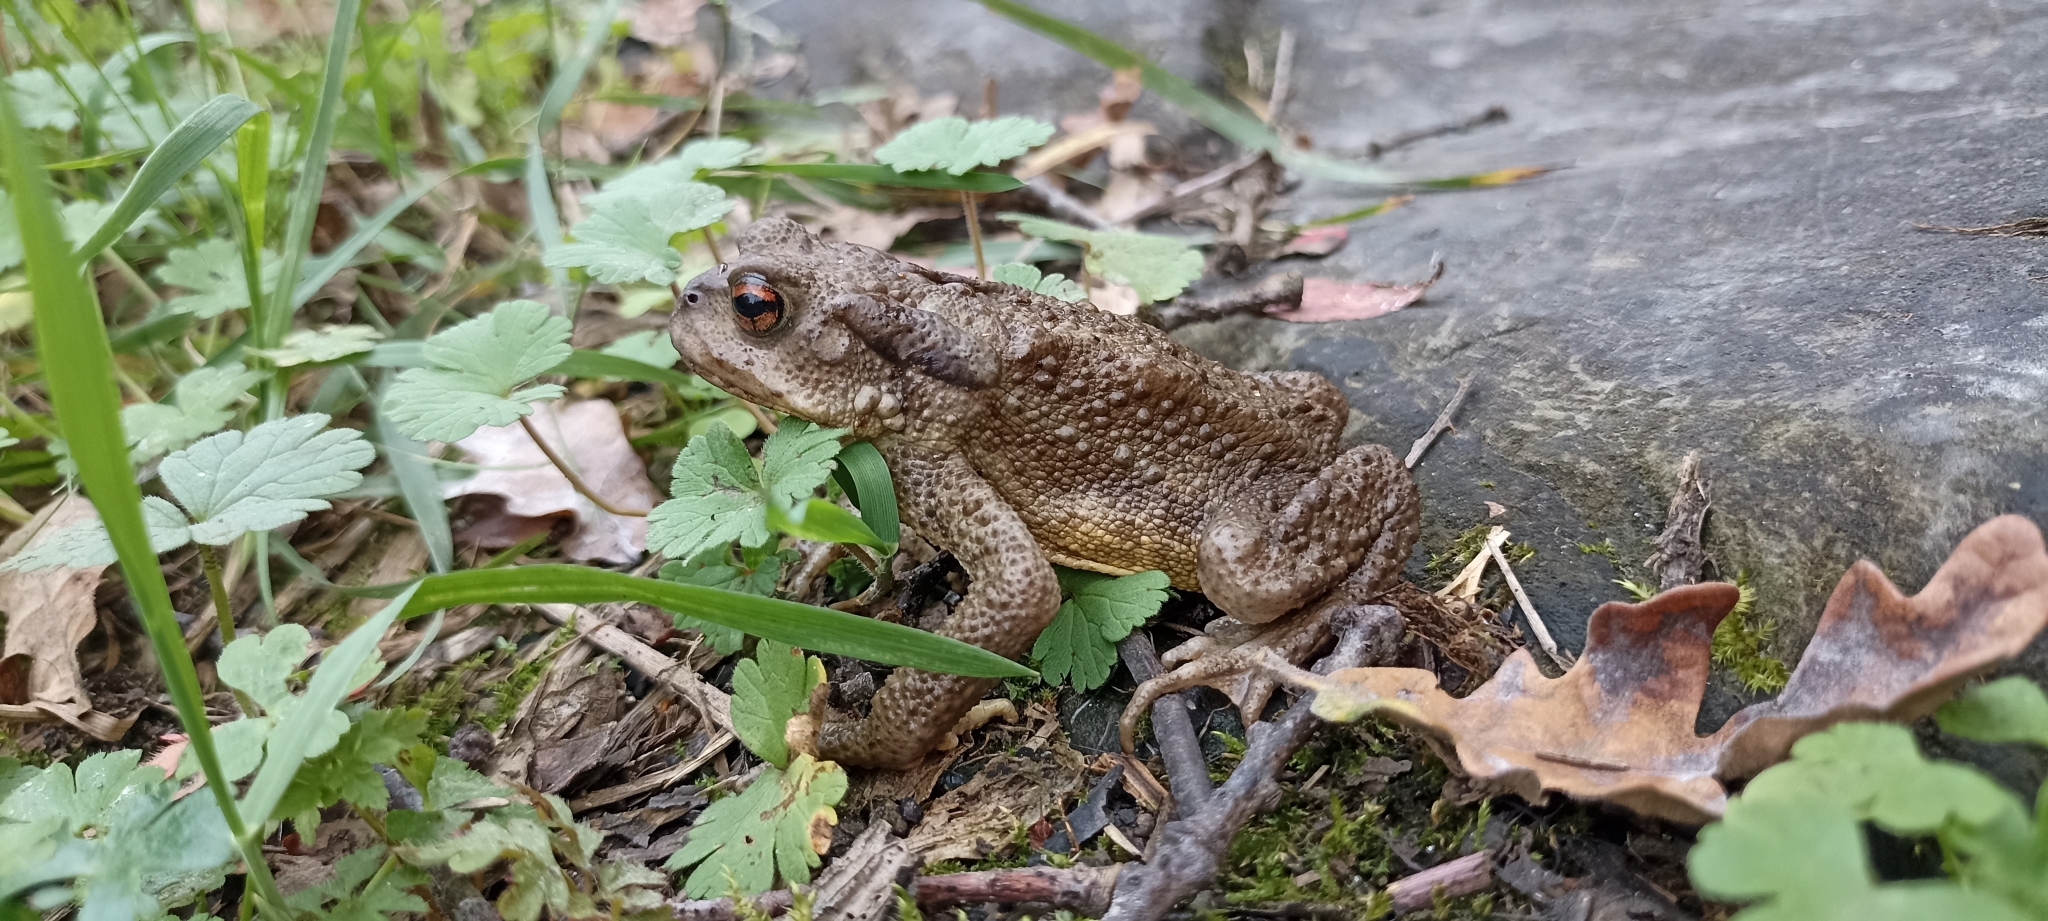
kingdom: Animalia
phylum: Chordata
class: Amphibia
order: Anura
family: Bufonidae
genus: Bufo
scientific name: Bufo spinosus
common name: Western common toad
